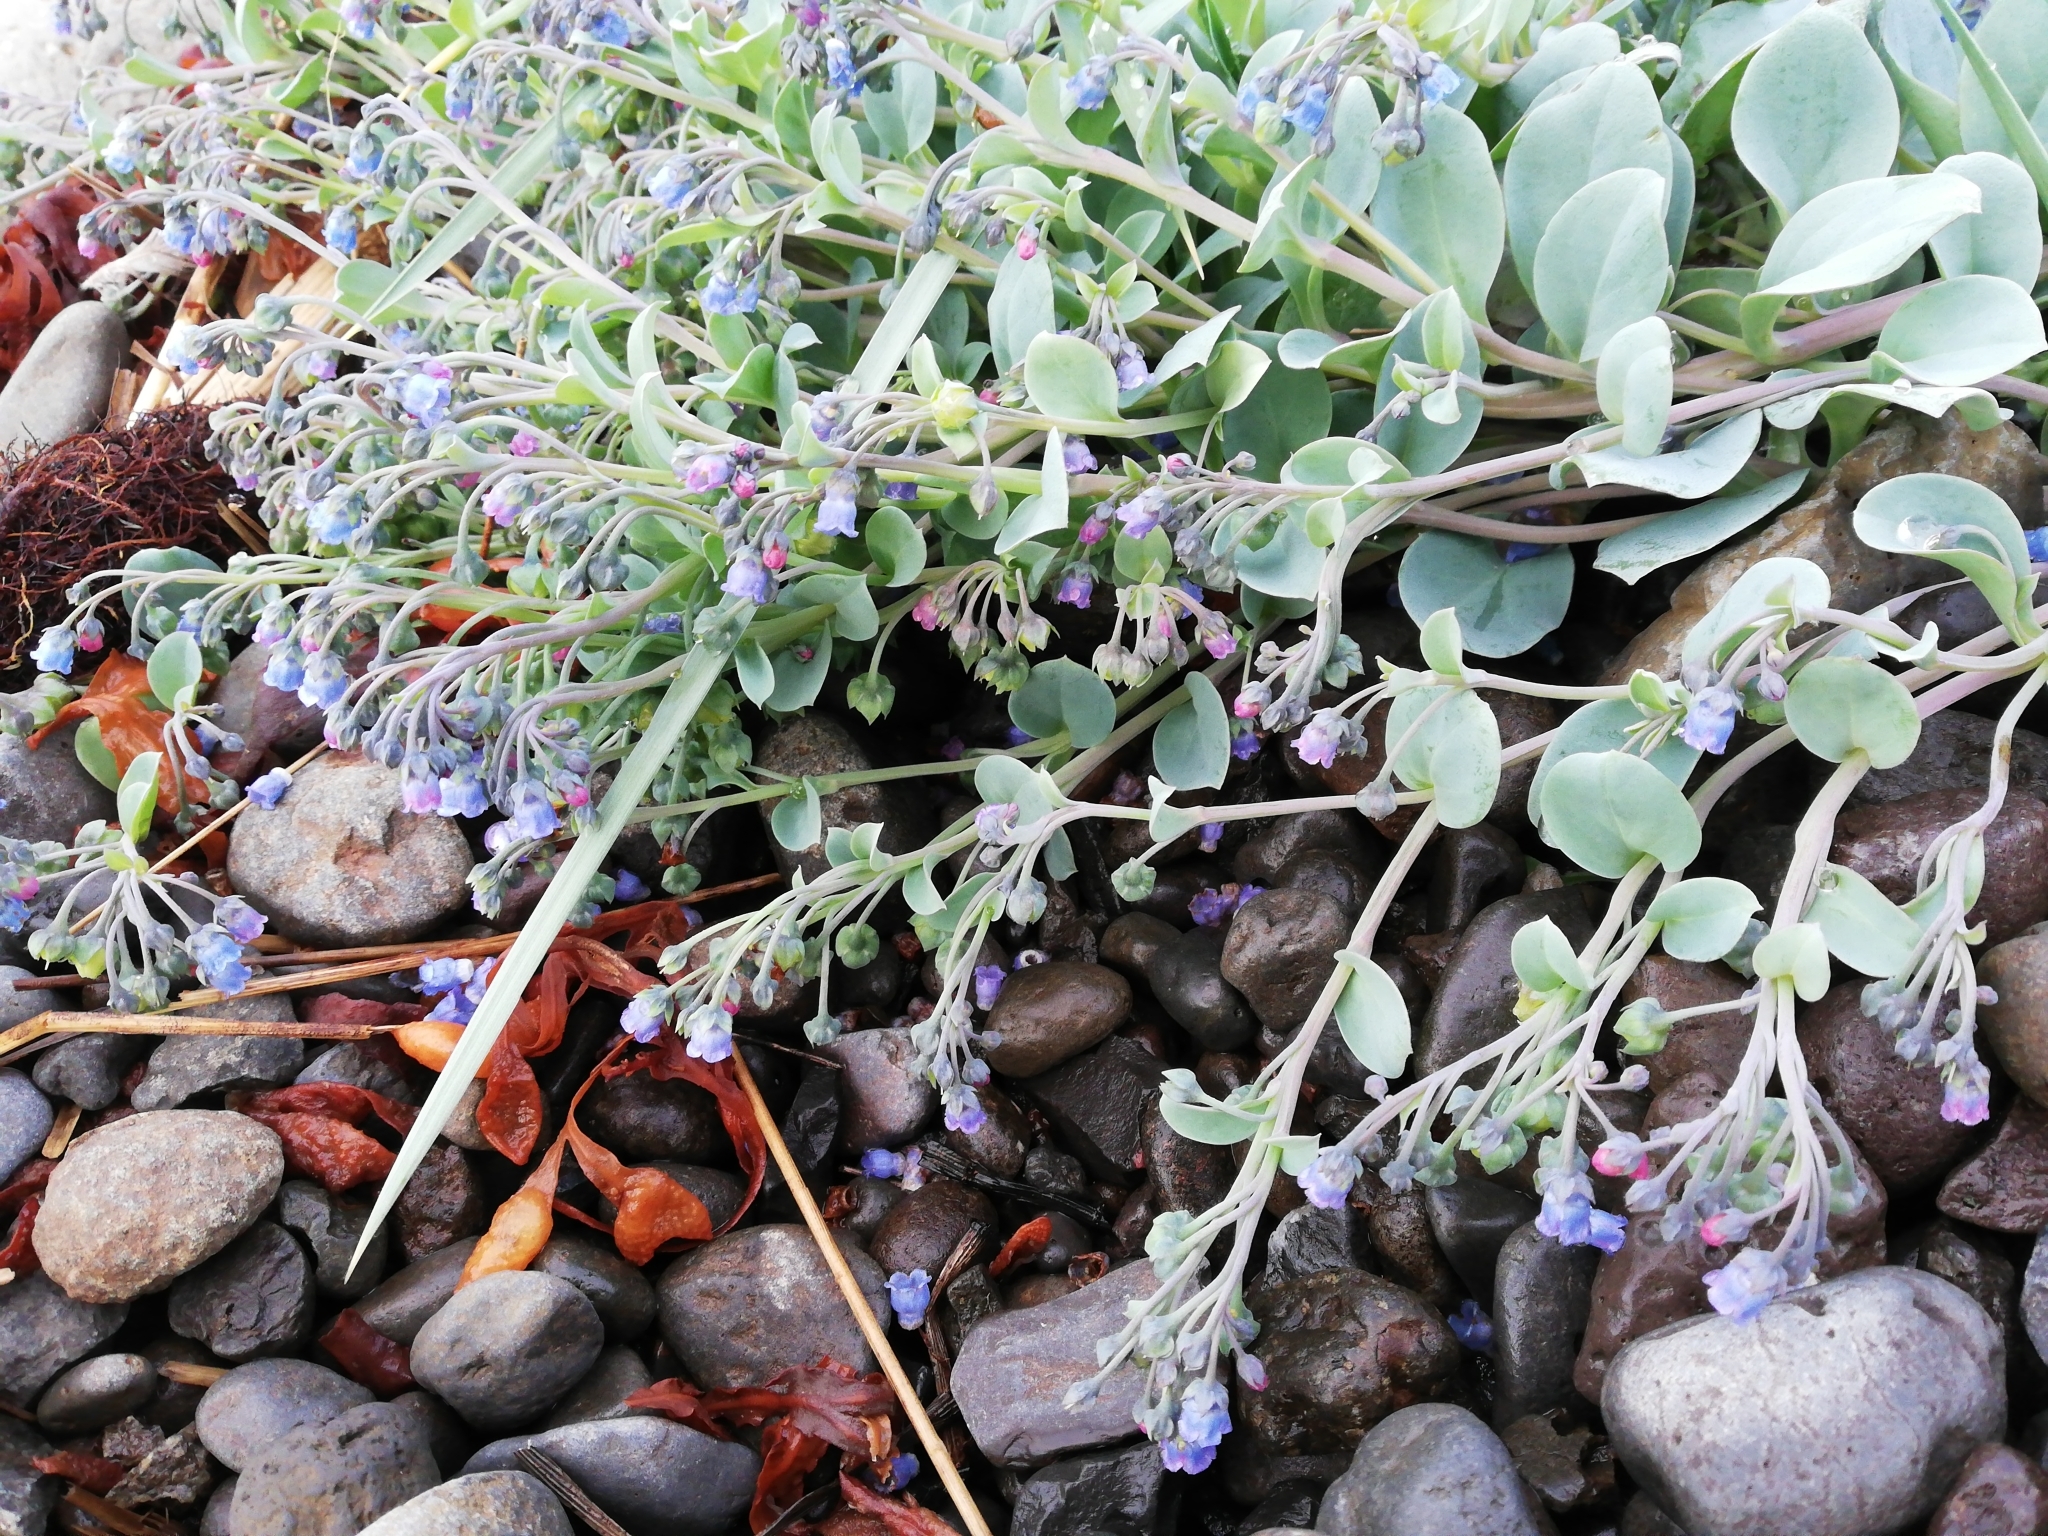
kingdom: Plantae
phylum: Tracheophyta
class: Magnoliopsida
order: Boraginales
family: Boraginaceae
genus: Mertensia
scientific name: Mertensia maritima
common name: Oysterplant
